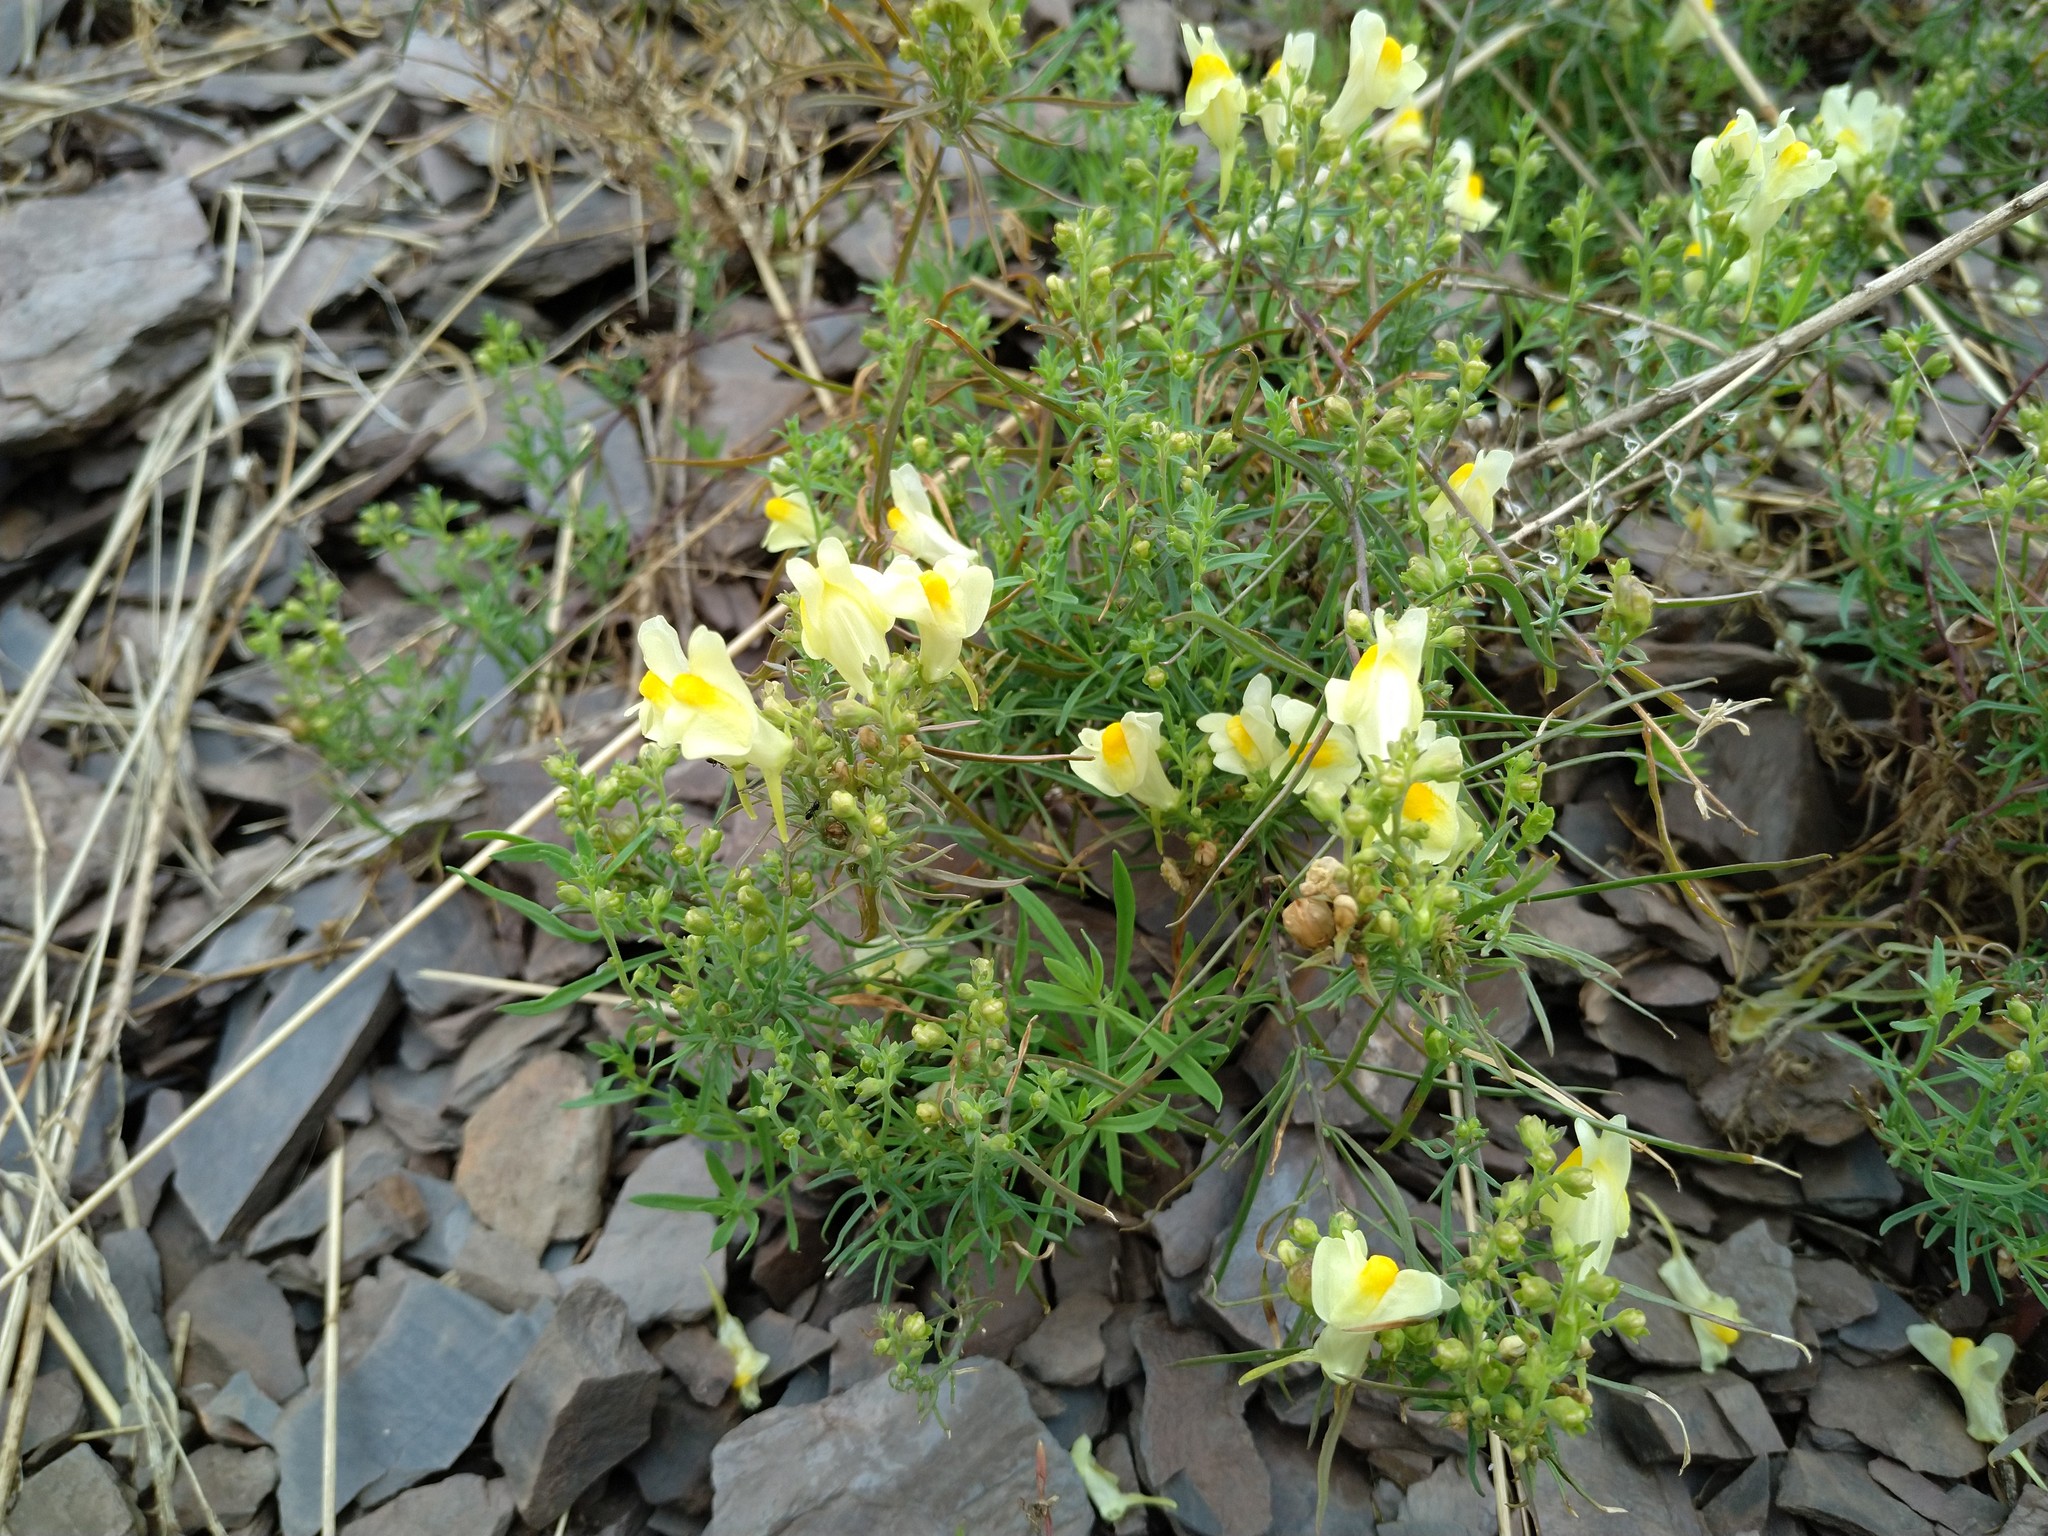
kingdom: Plantae
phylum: Tracheophyta
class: Magnoliopsida
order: Lamiales
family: Plantaginaceae
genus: Linaria
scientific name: Linaria vulgaris
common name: Butter and eggs
